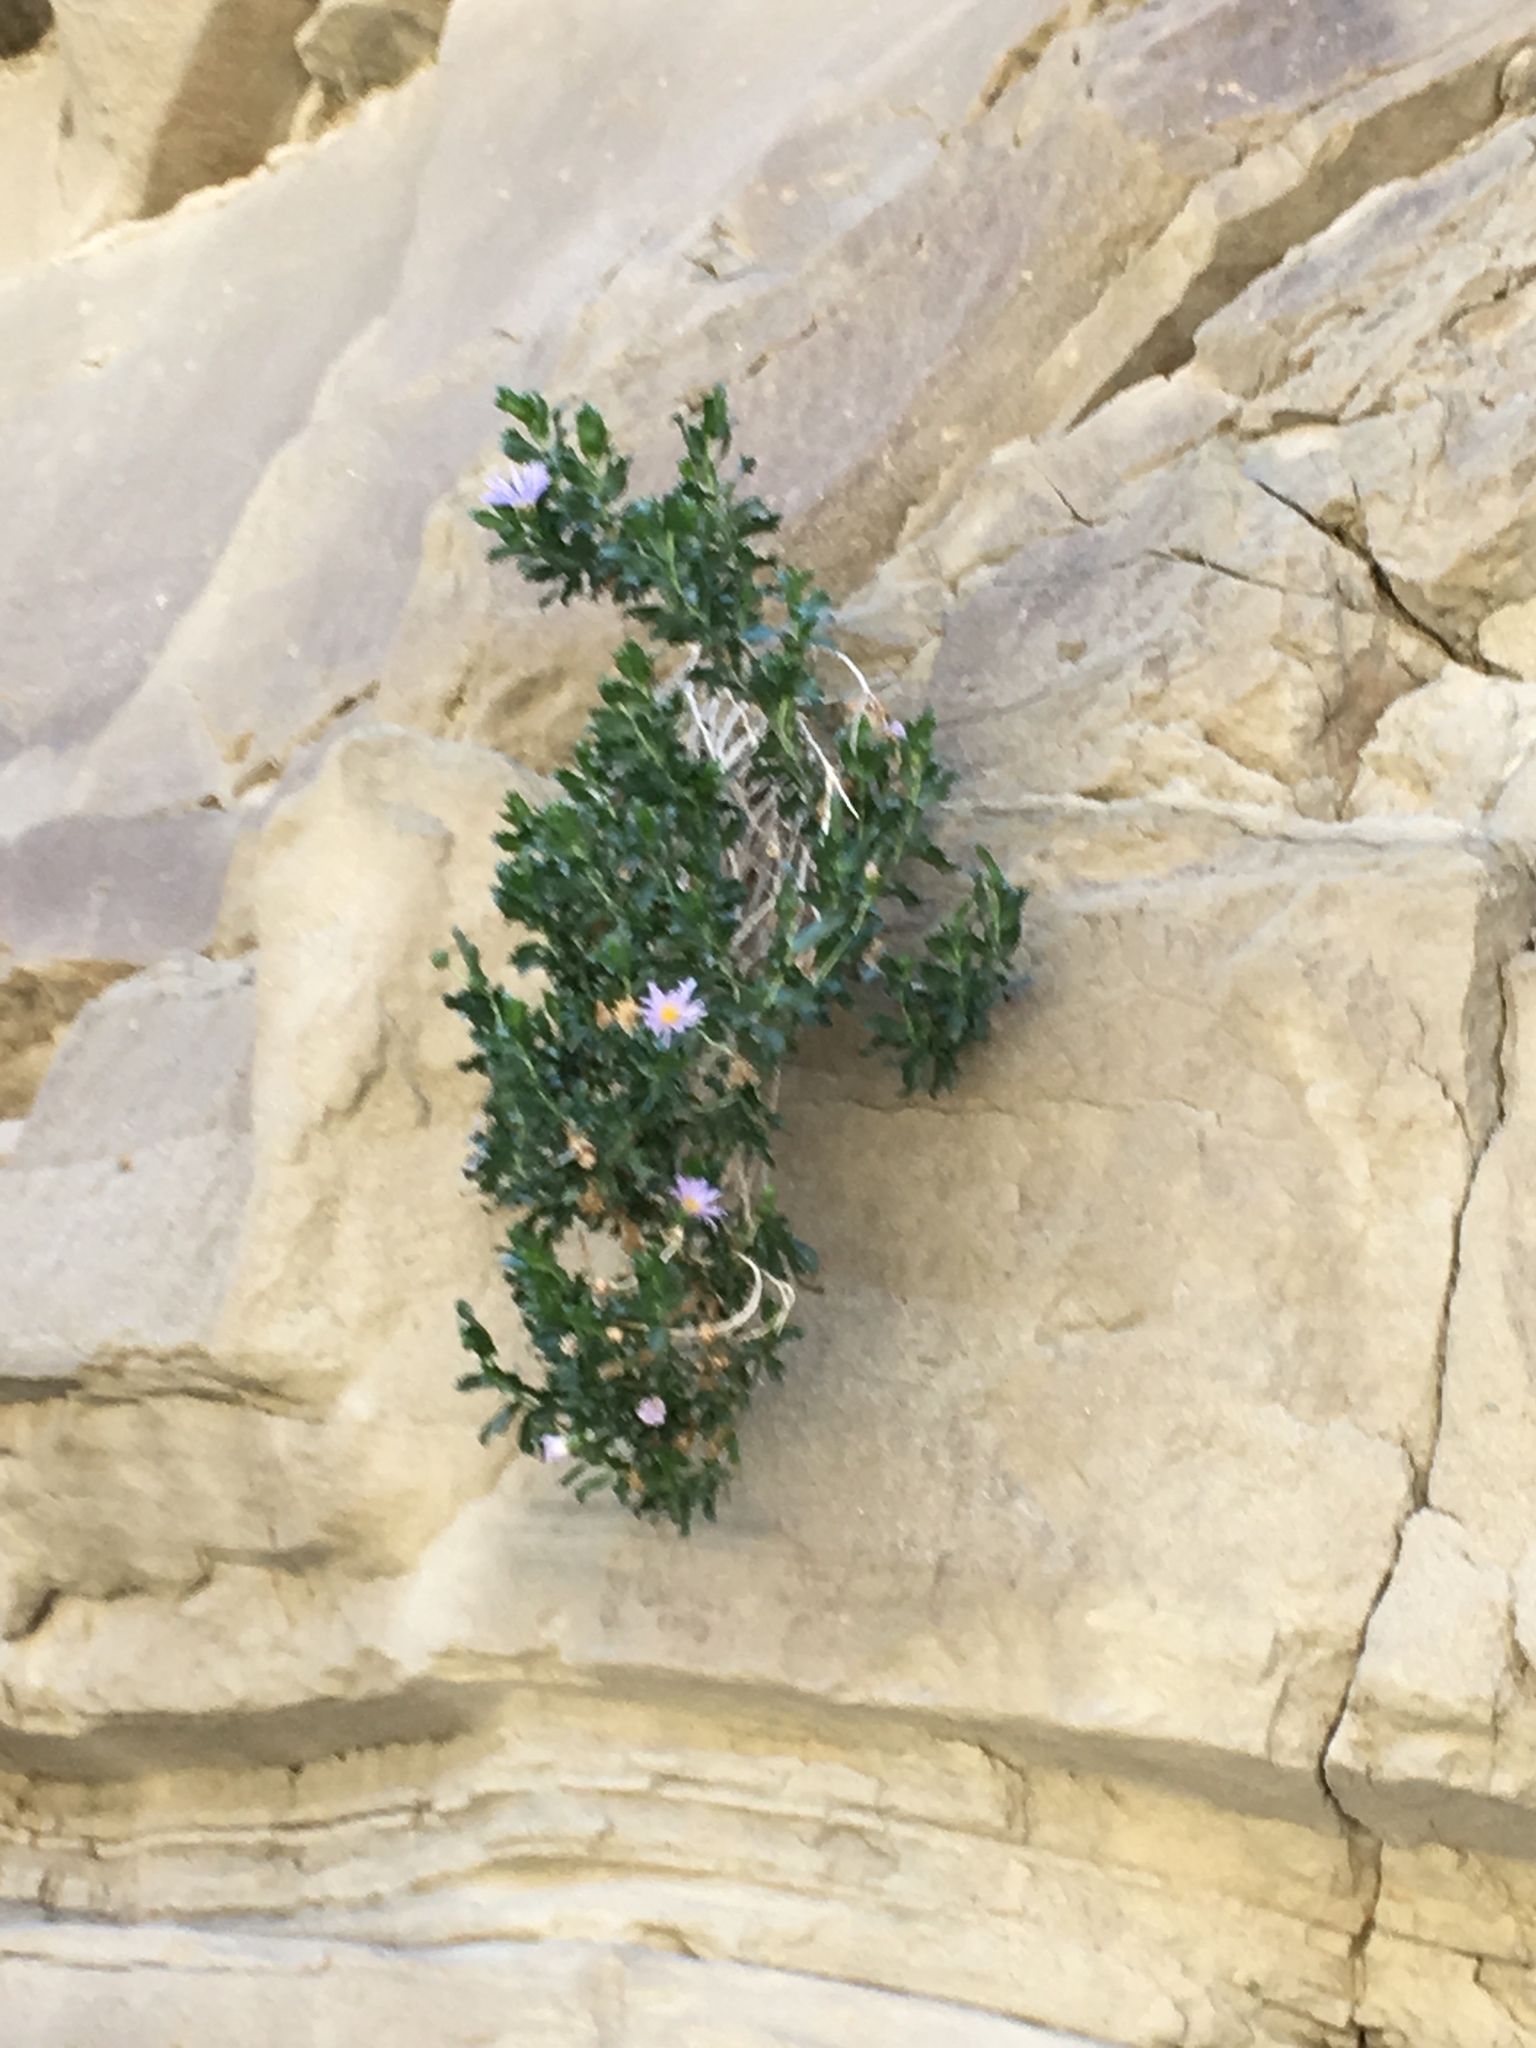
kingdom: Plantae
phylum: Tracheophyta
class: Magnoliopsida
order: Asterales
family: Asteraceae
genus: Xylorhiza
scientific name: Xylorhiza orcuttii
